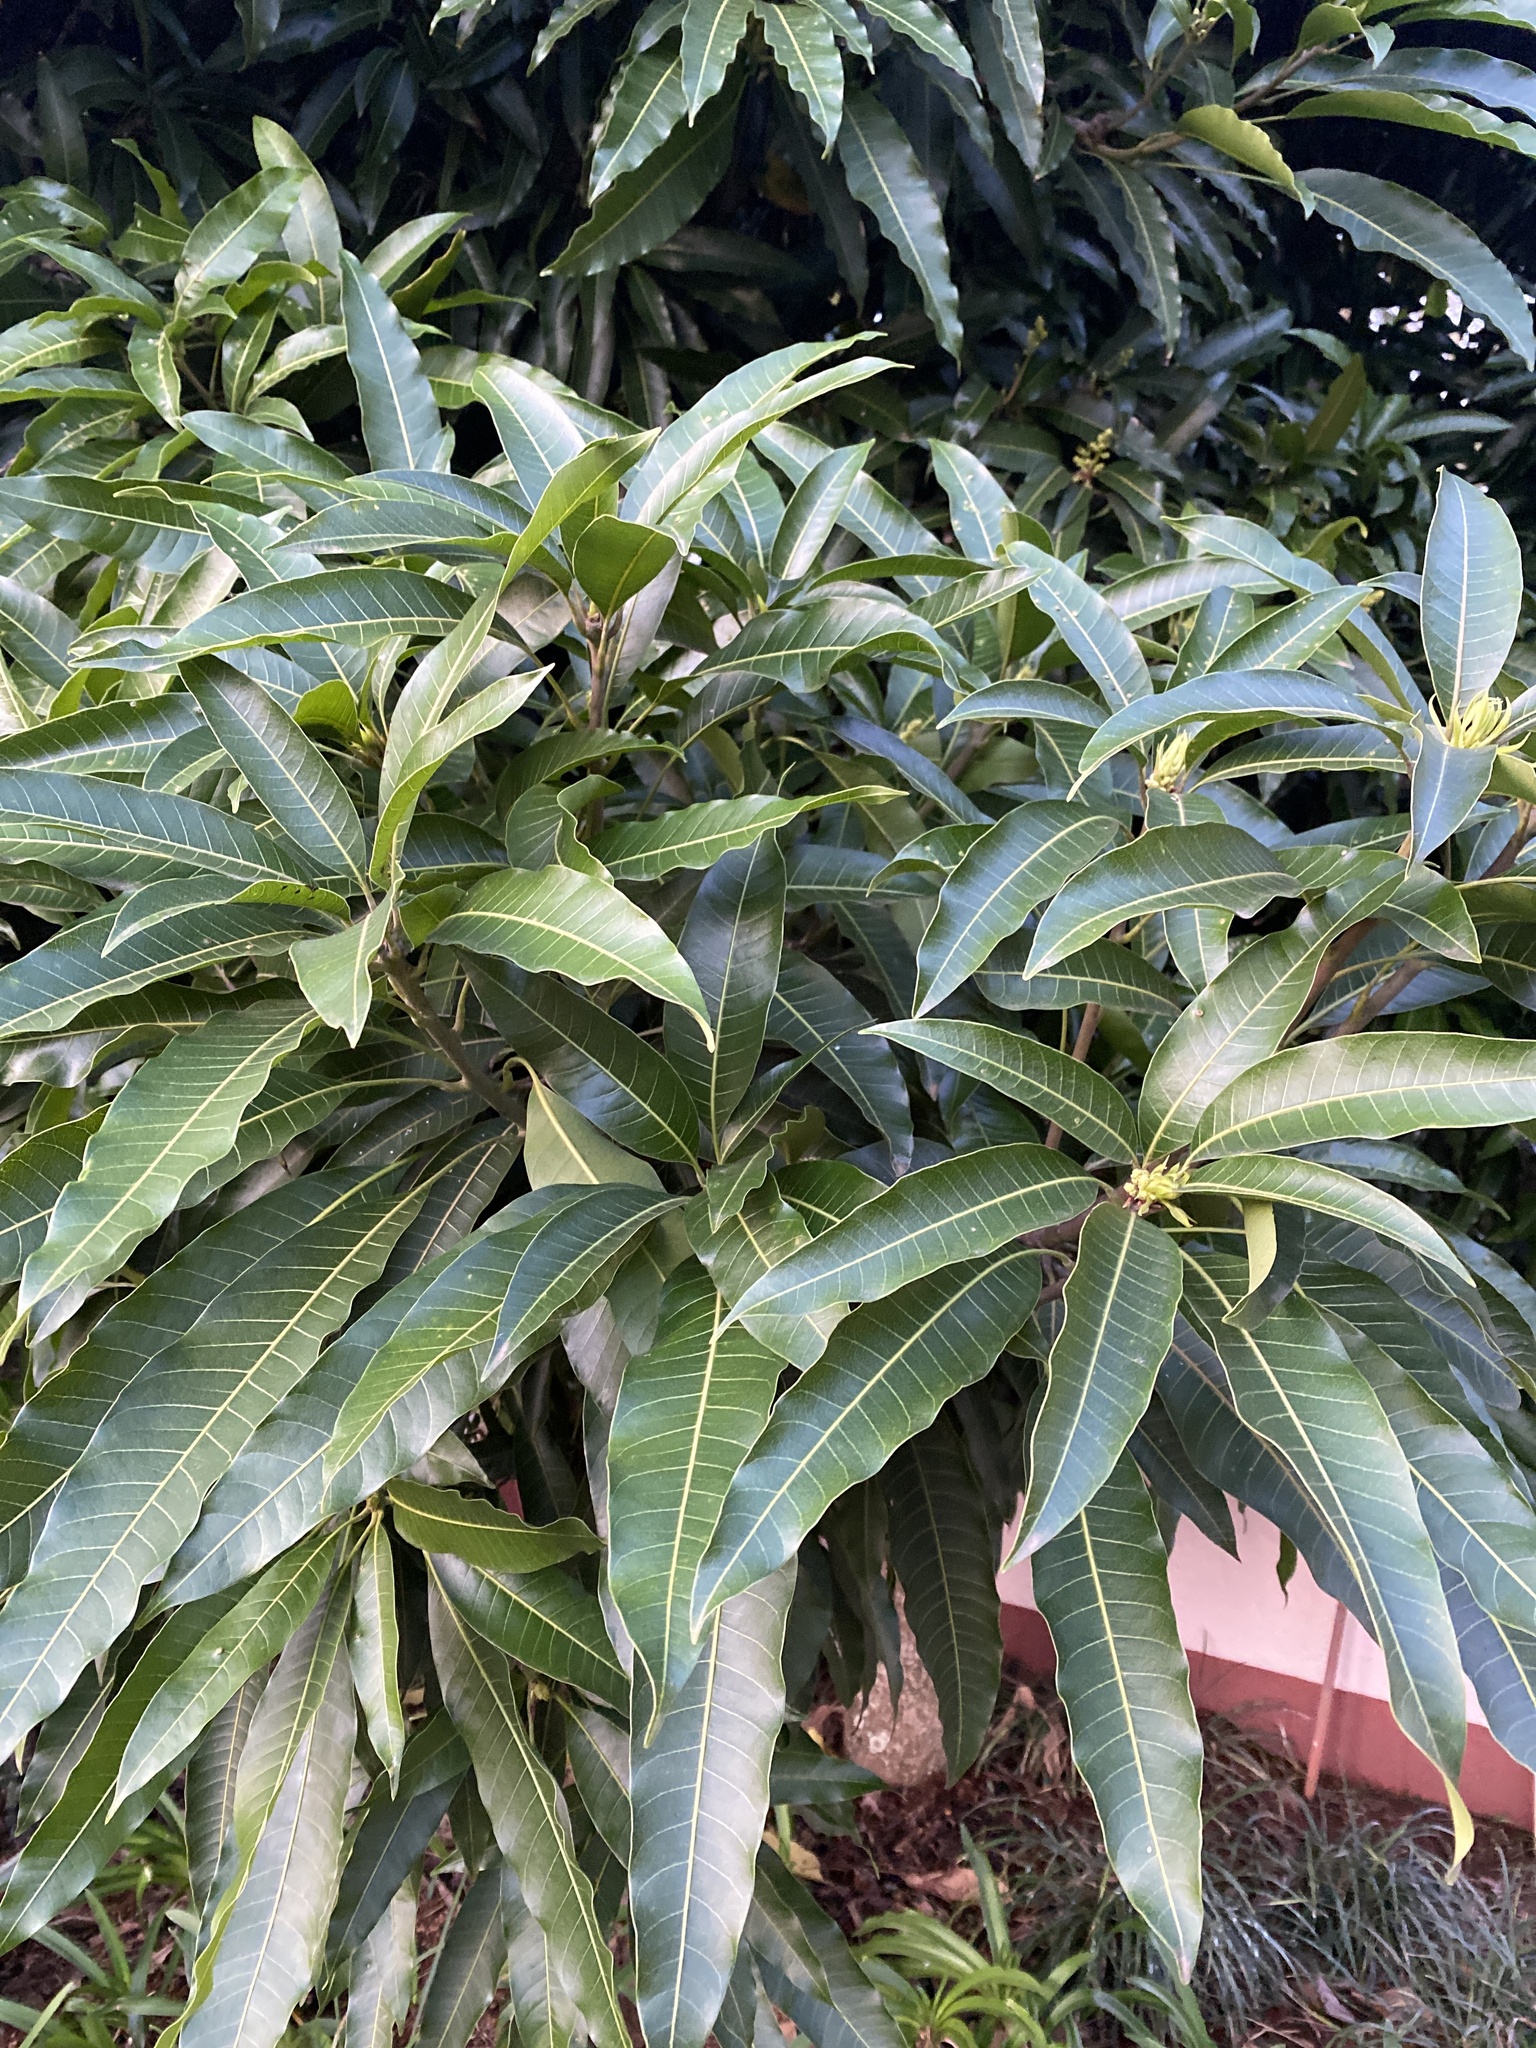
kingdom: Plantae
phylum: Tracheophyta
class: Magnoliopsida
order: Sapindales
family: Anacardiaceae
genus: Mangifera
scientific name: Mangifera indica
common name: Mango
